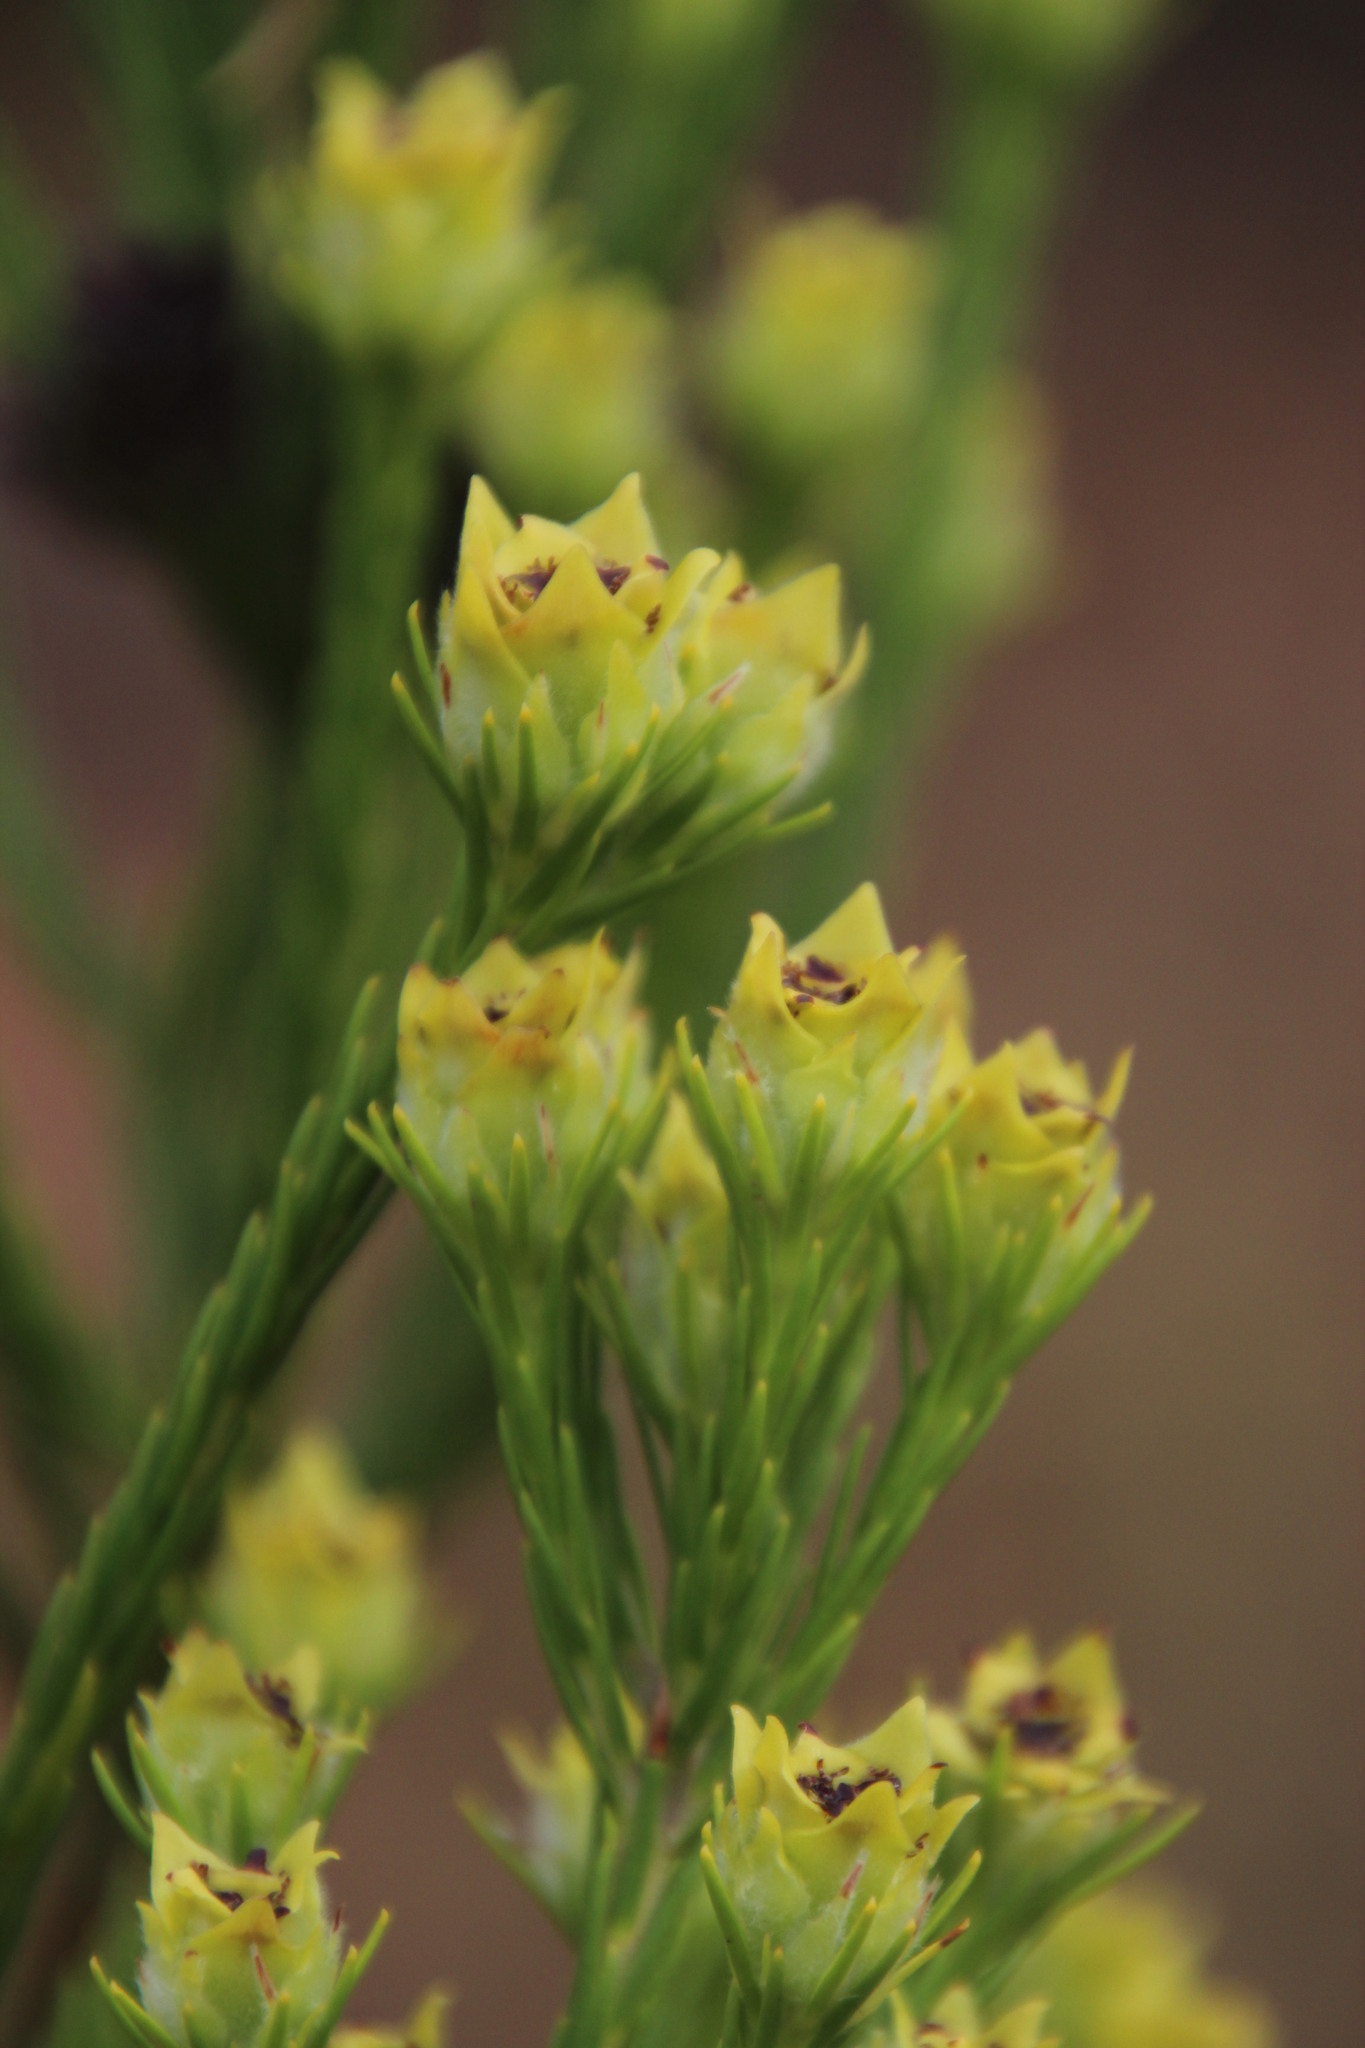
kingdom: Plantae
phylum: Tracheophyta
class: Magnoliopsida
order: Proteales
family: Proteaceae
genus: Leucadendron
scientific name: Leucadendron corymbosum
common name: Swartveld conebush
